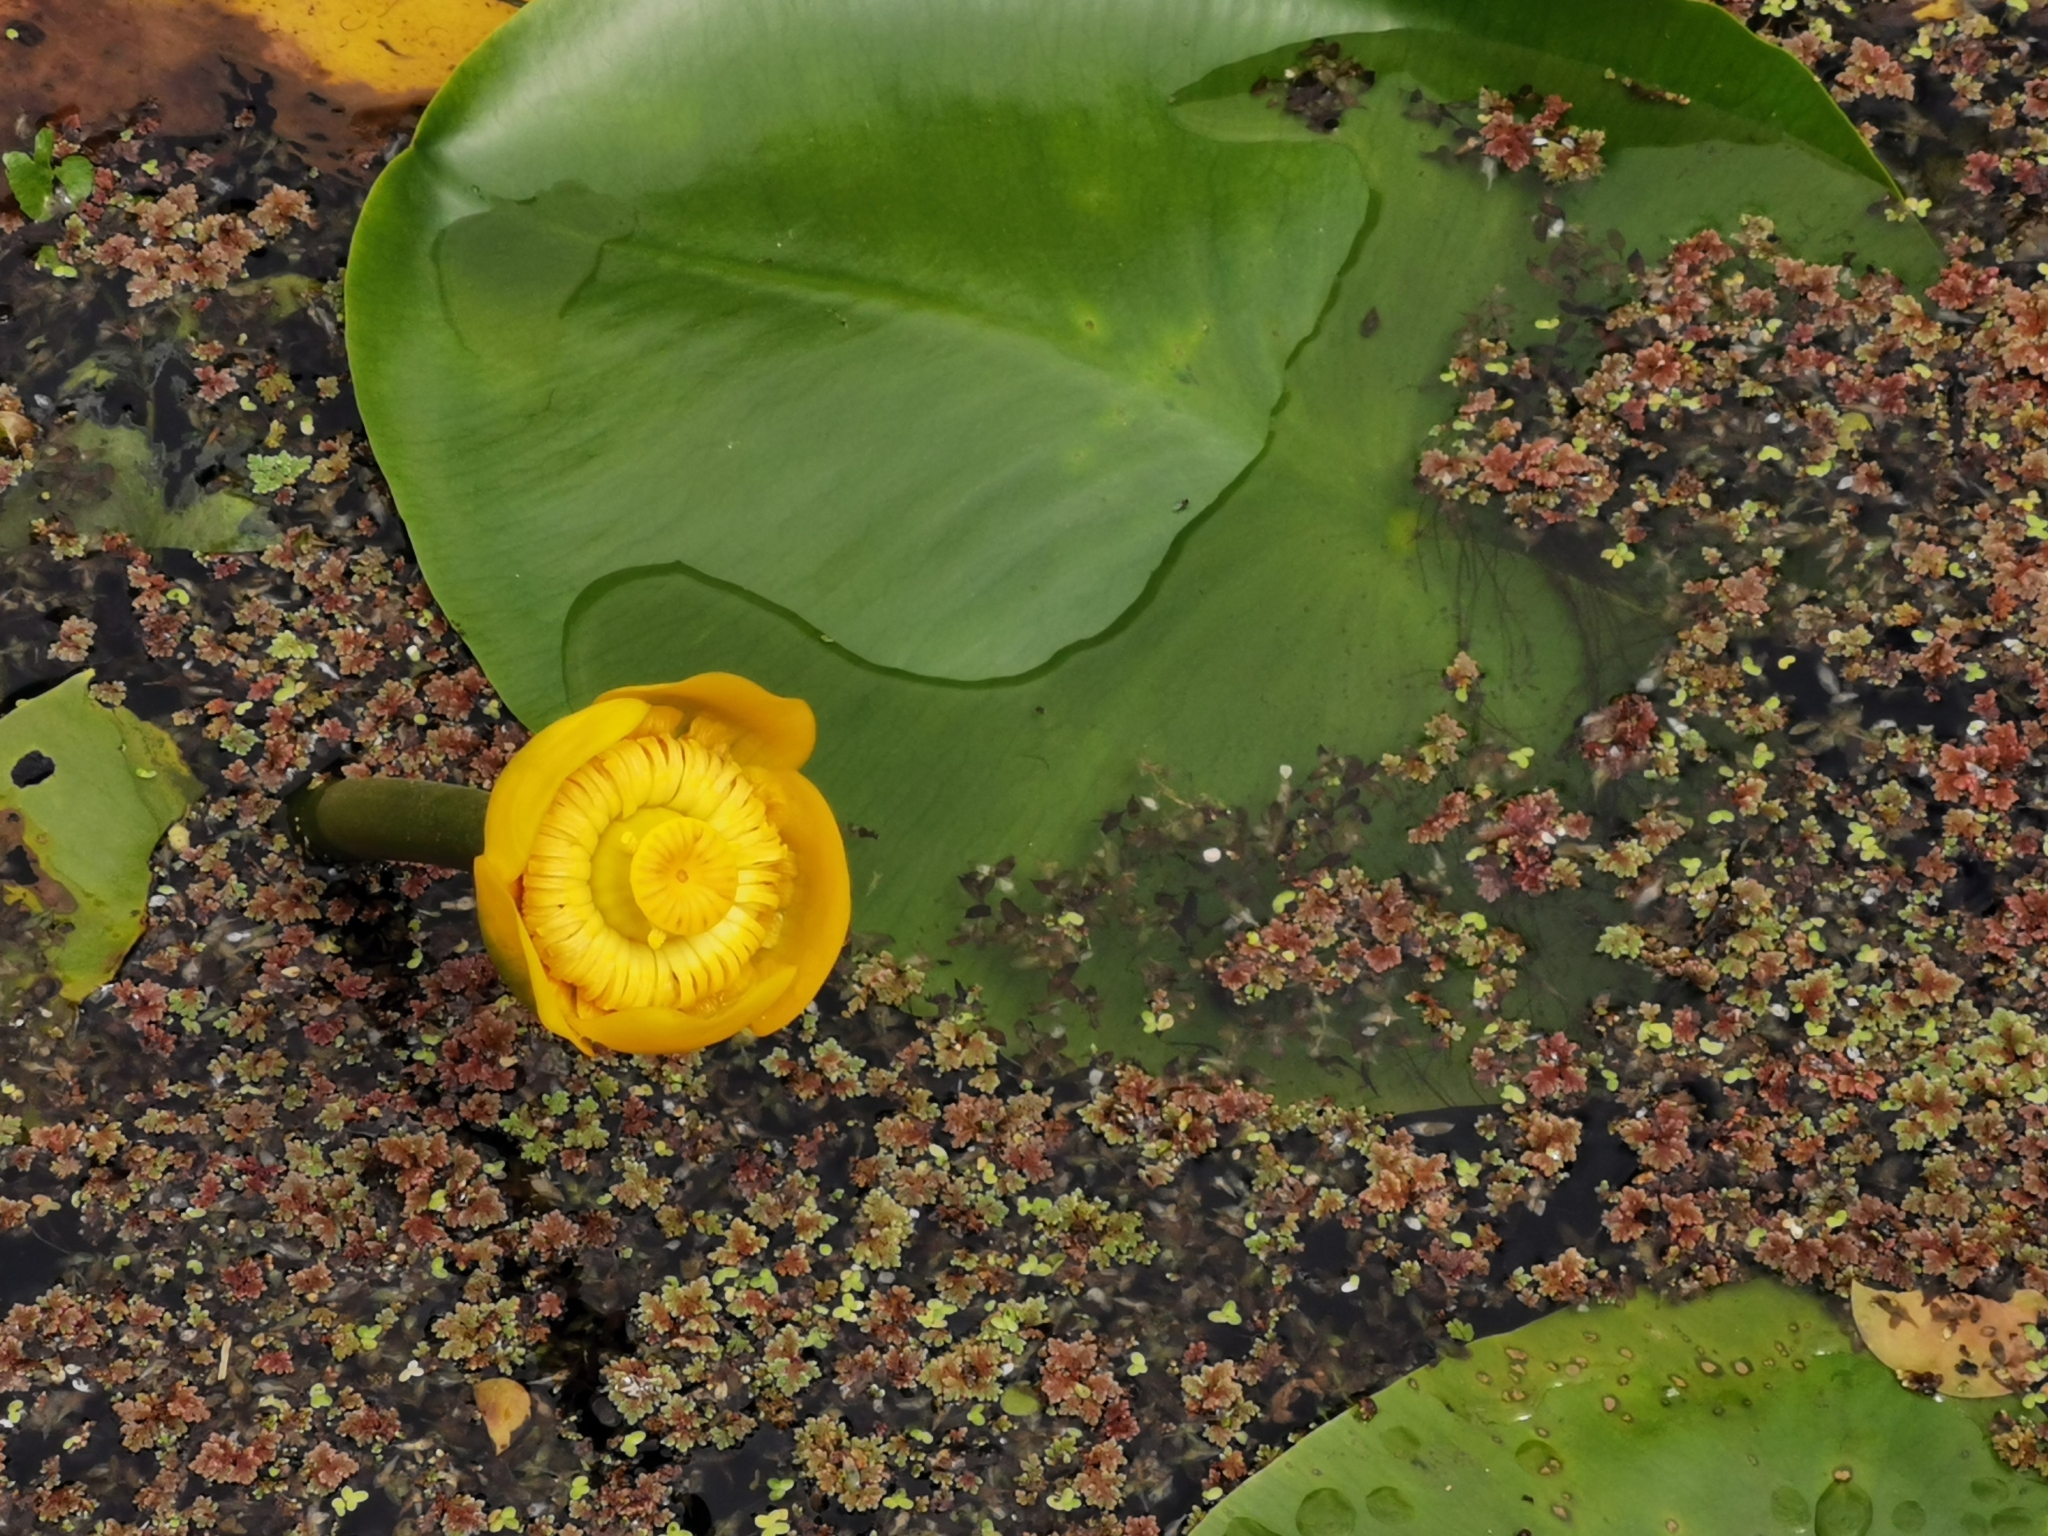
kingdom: Plantae
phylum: Tracheophyta
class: Magnoliopsida
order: Nymphaeales
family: Nymphaeaceae
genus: Nuphar
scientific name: Nuphar lutea
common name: Yellow water-lily
